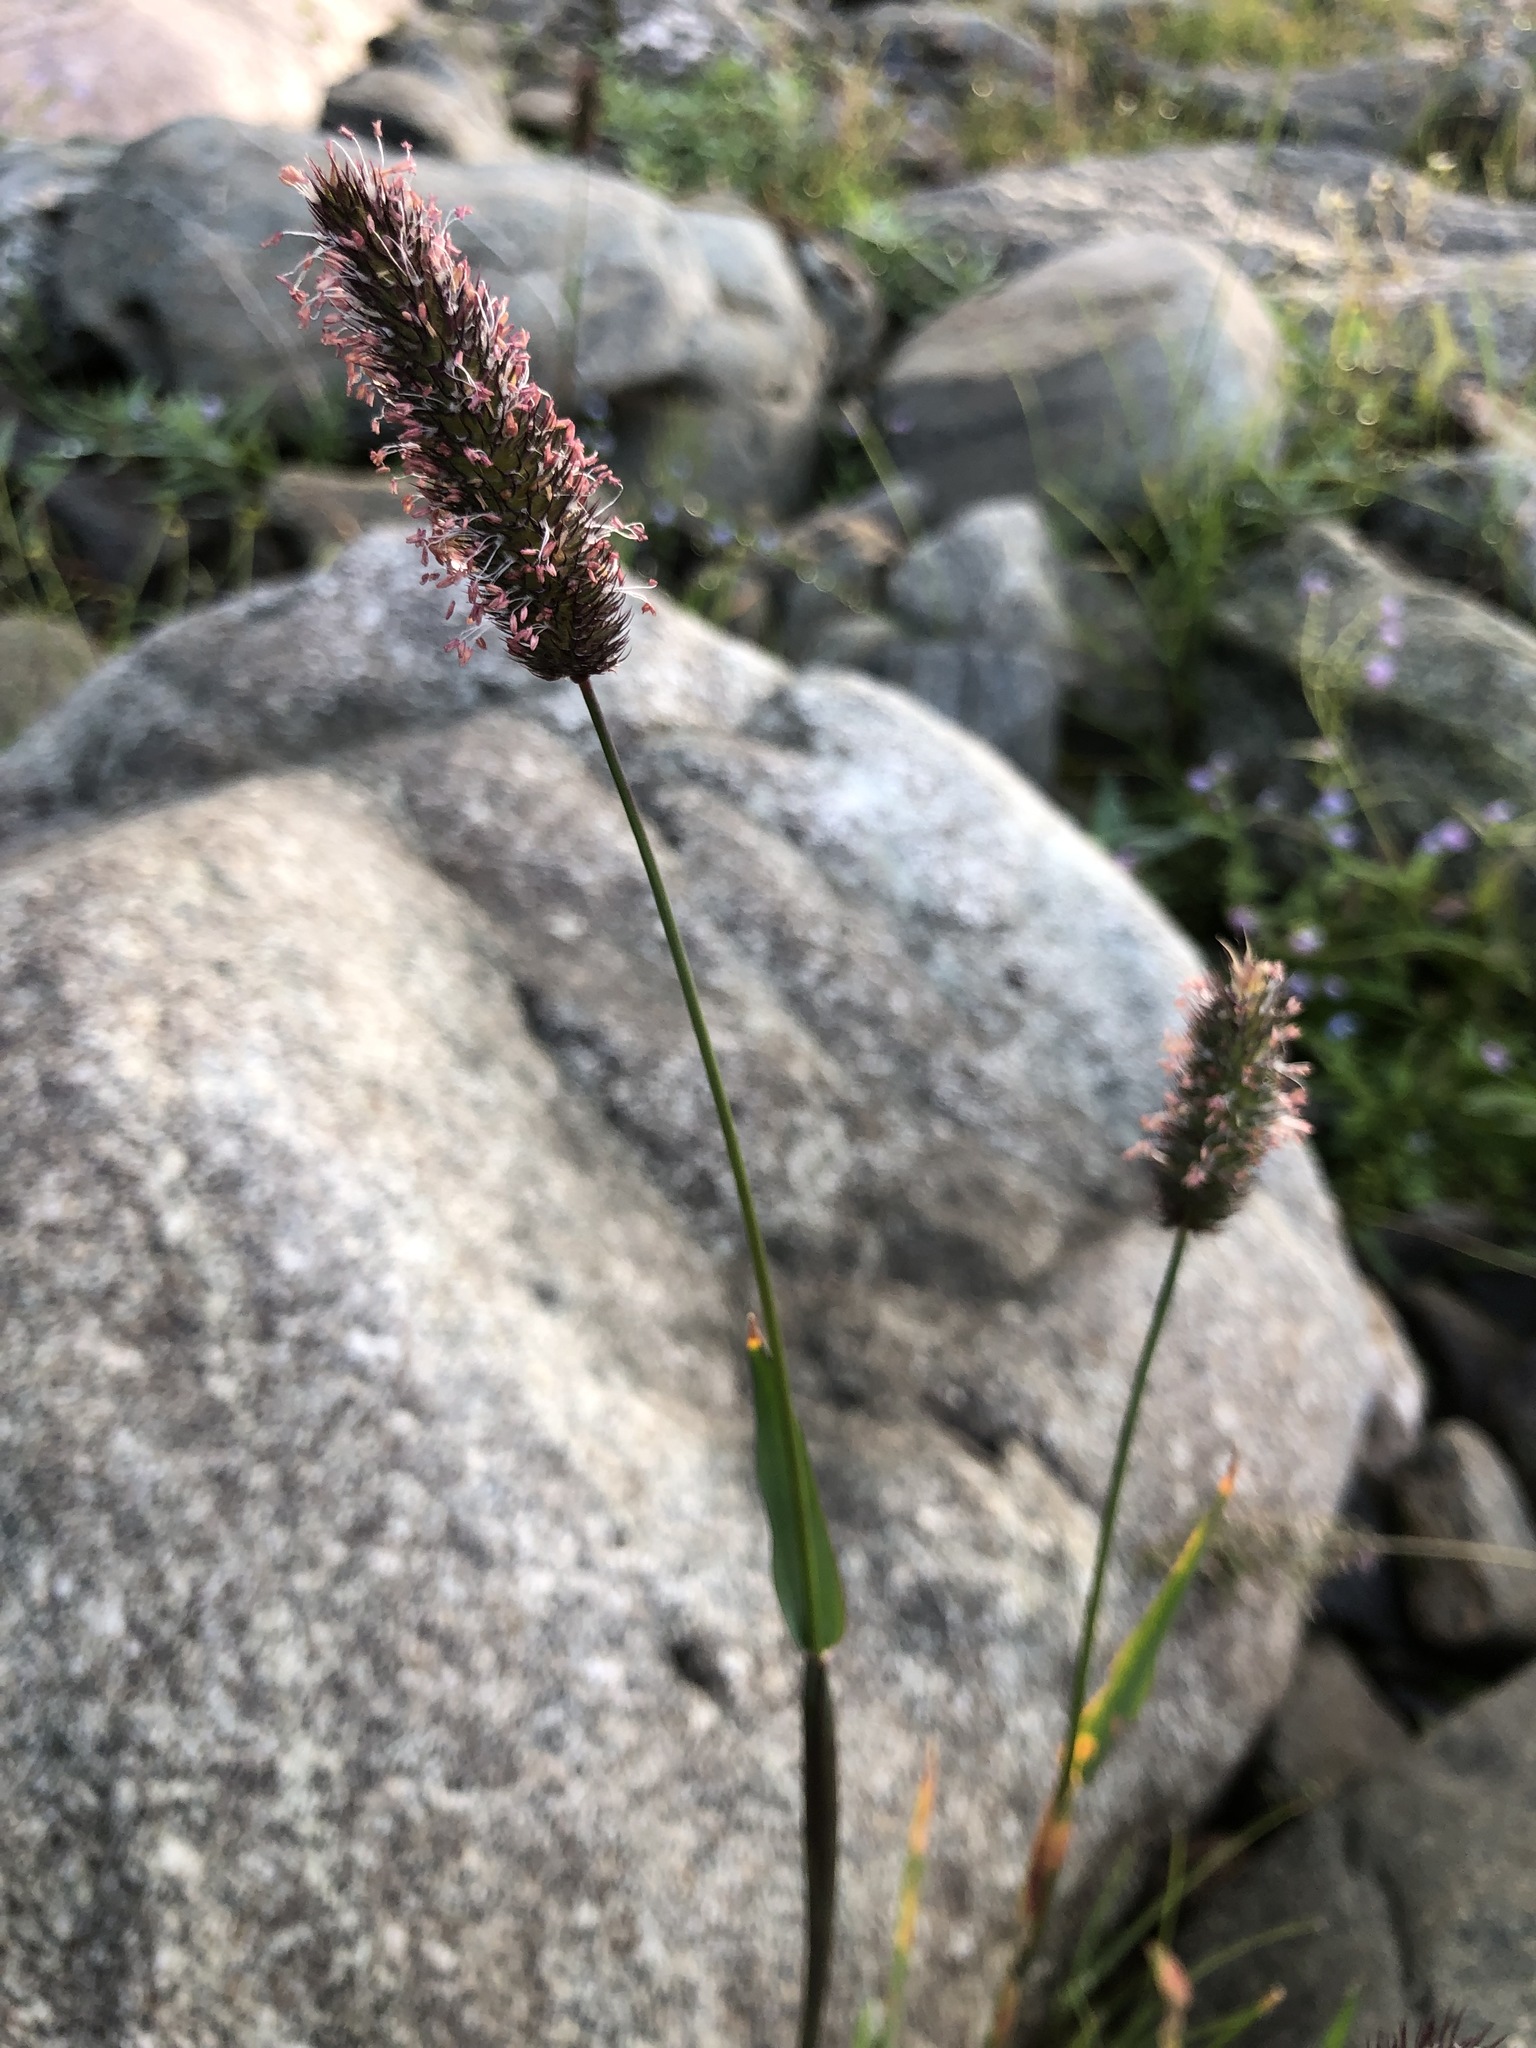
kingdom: Plantae
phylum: Tracheophyta
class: Liliopsida
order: Poales
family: Poaceae
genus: Phleum
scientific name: Phleum alpinum
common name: Alpine cat's-tail
